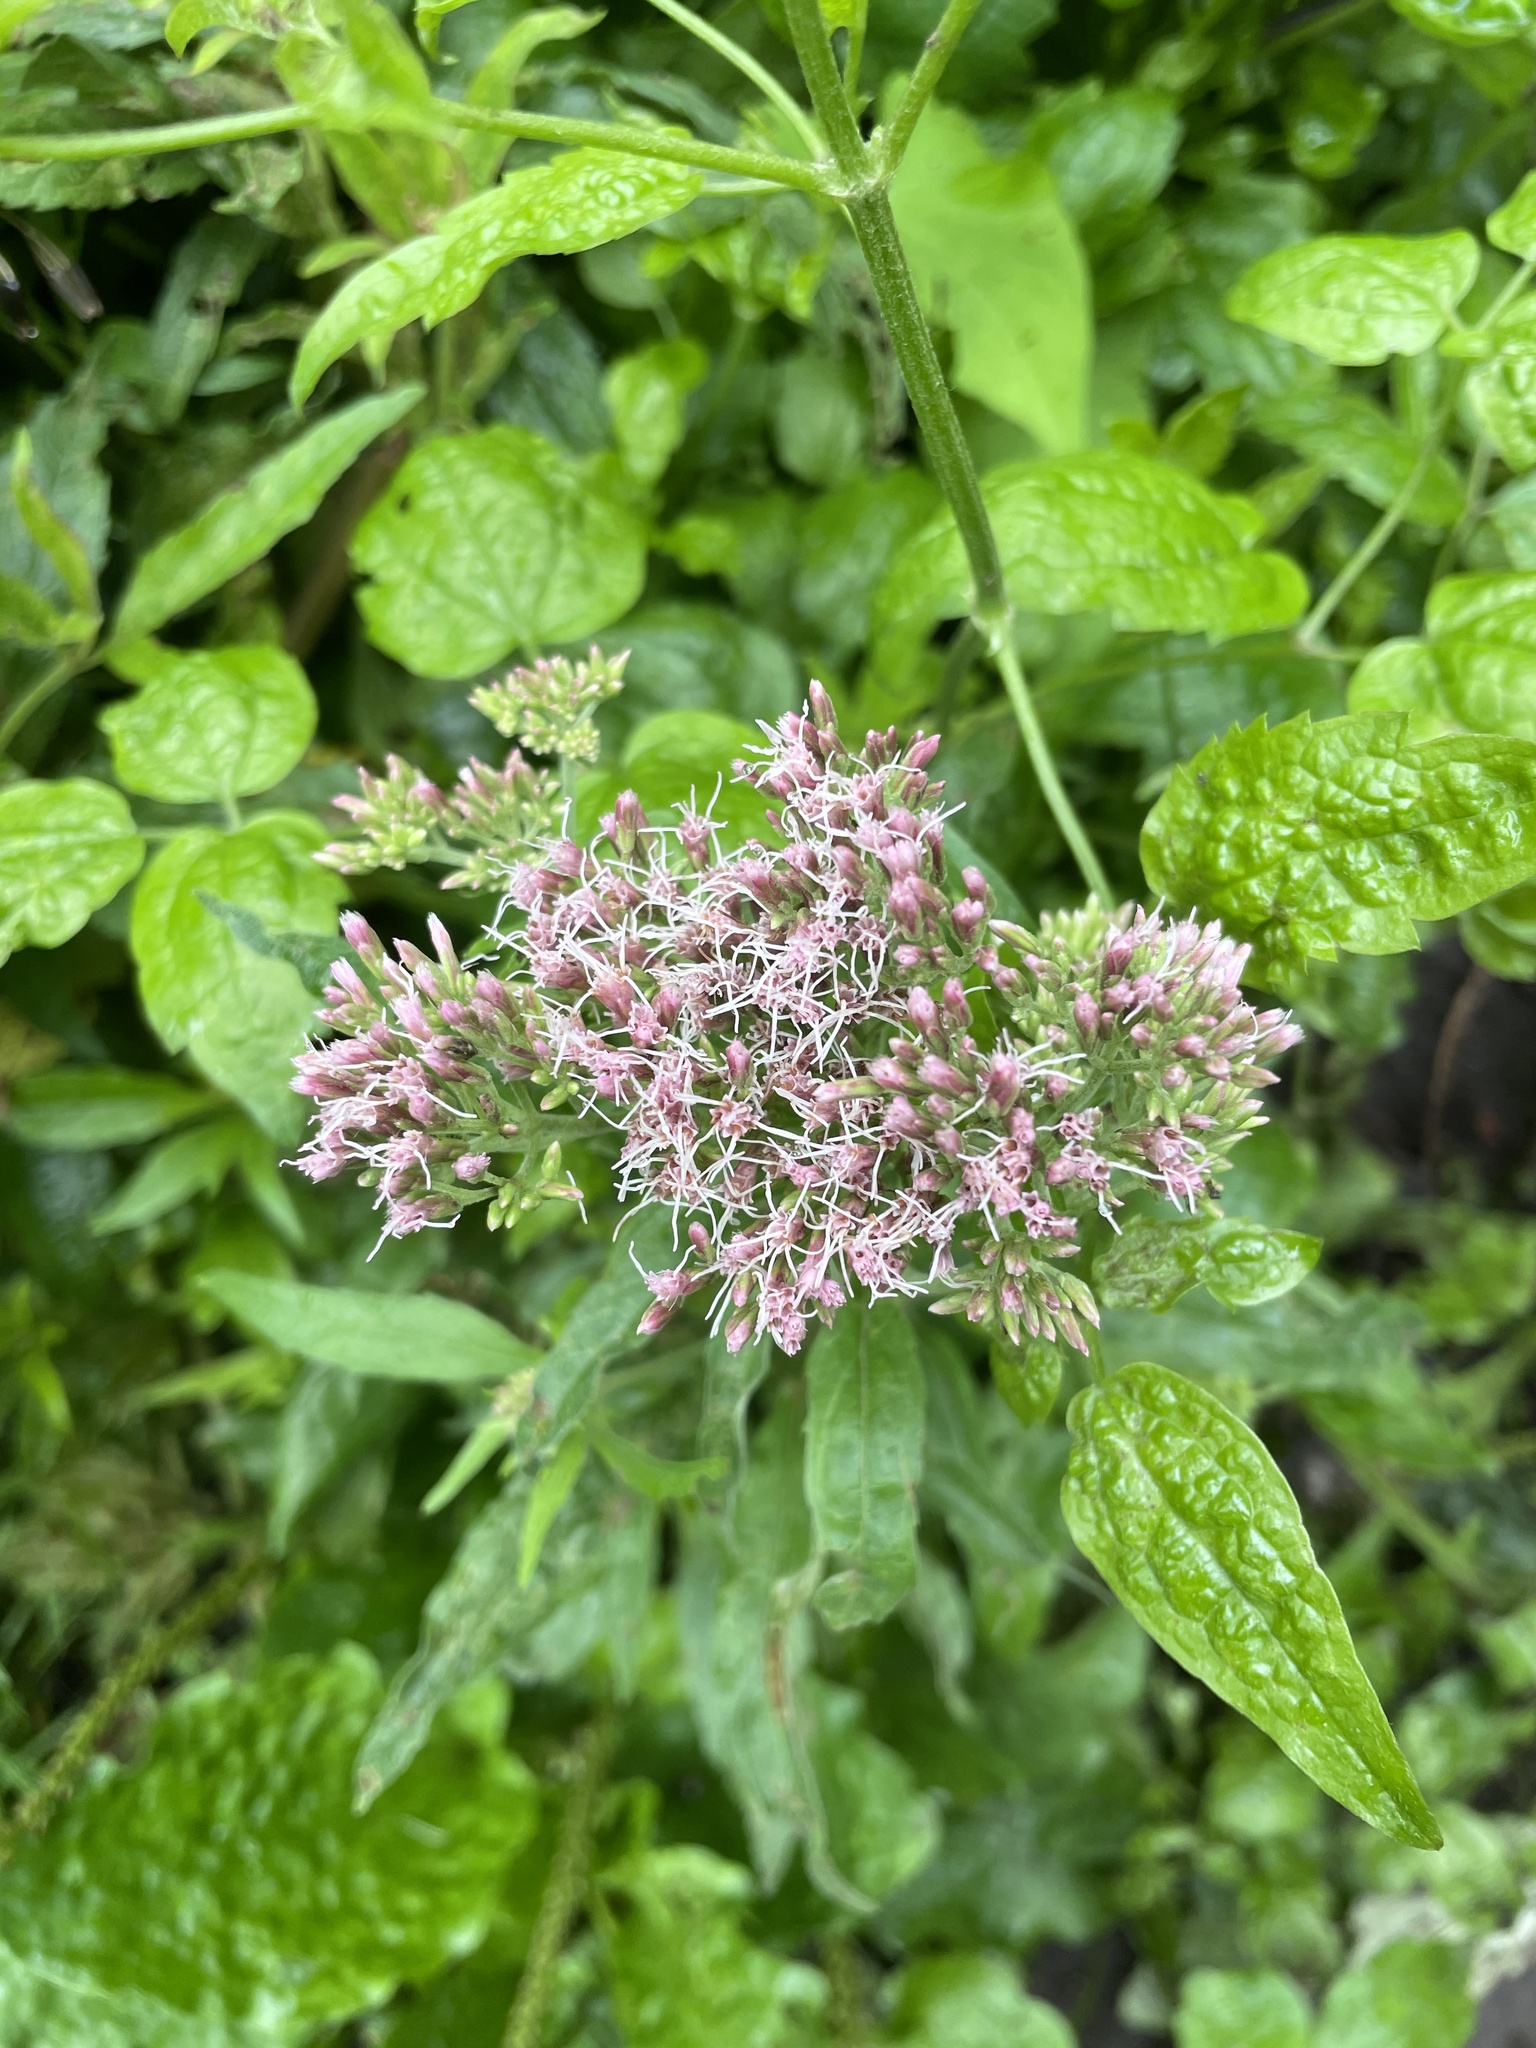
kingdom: Plantae
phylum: Tracheophyta
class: Magnoliopsida
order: Asterales
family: Asteraceae
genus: Eupatorium
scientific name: Eupatorium cannabinum
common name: Hemp-agrimony
